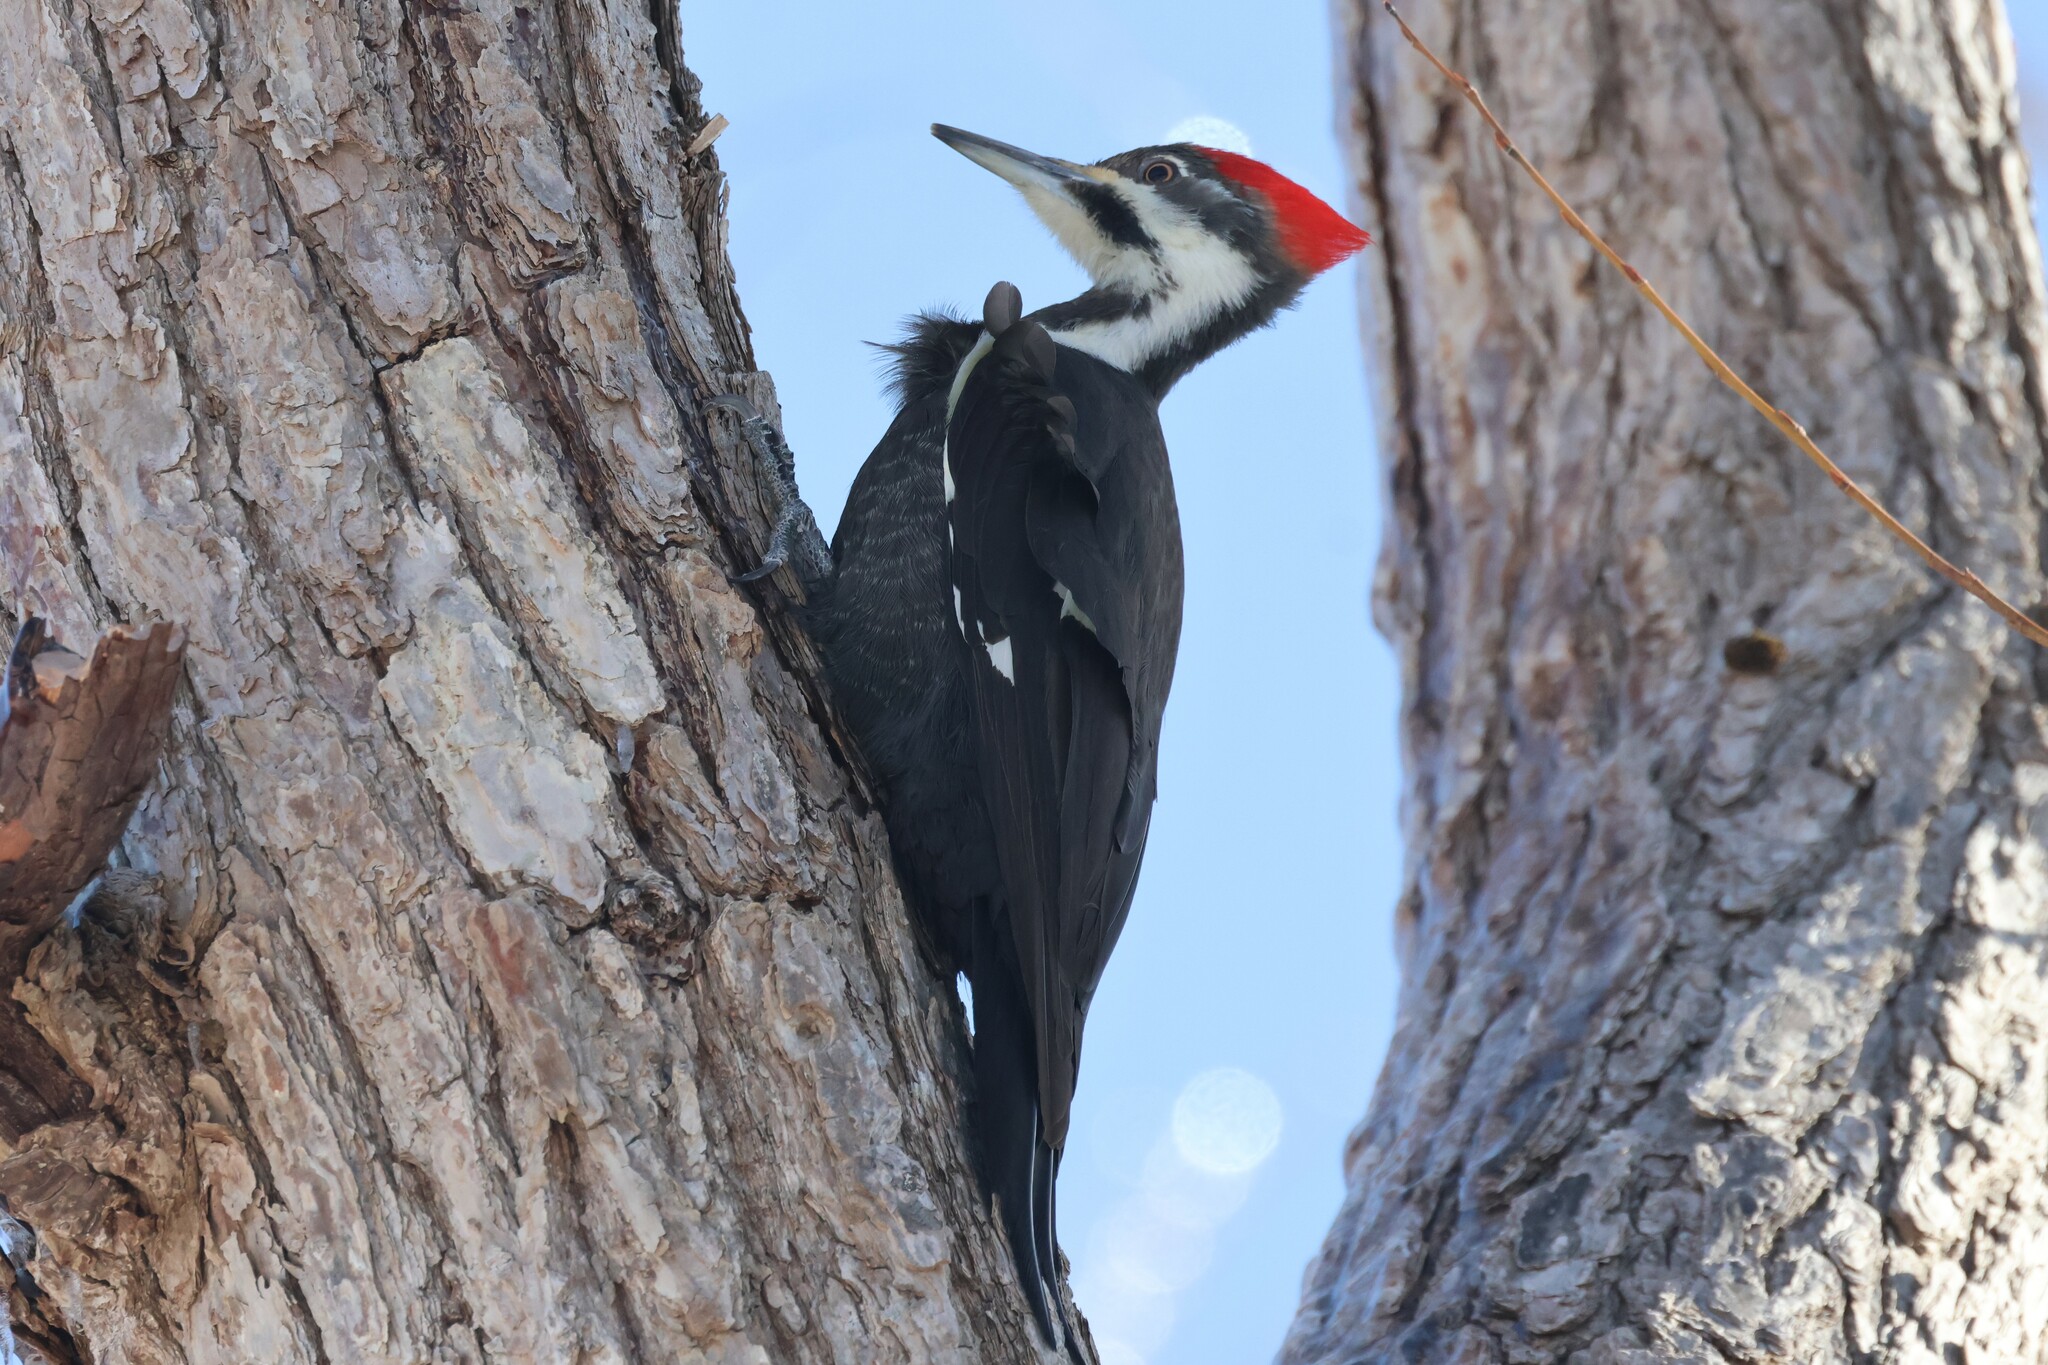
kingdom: Animalia
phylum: Chordata
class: Aves
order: Piciformes
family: Picidae
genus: Dryocopus
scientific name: Dryocopus pileatus
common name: Pileated woodpecker
